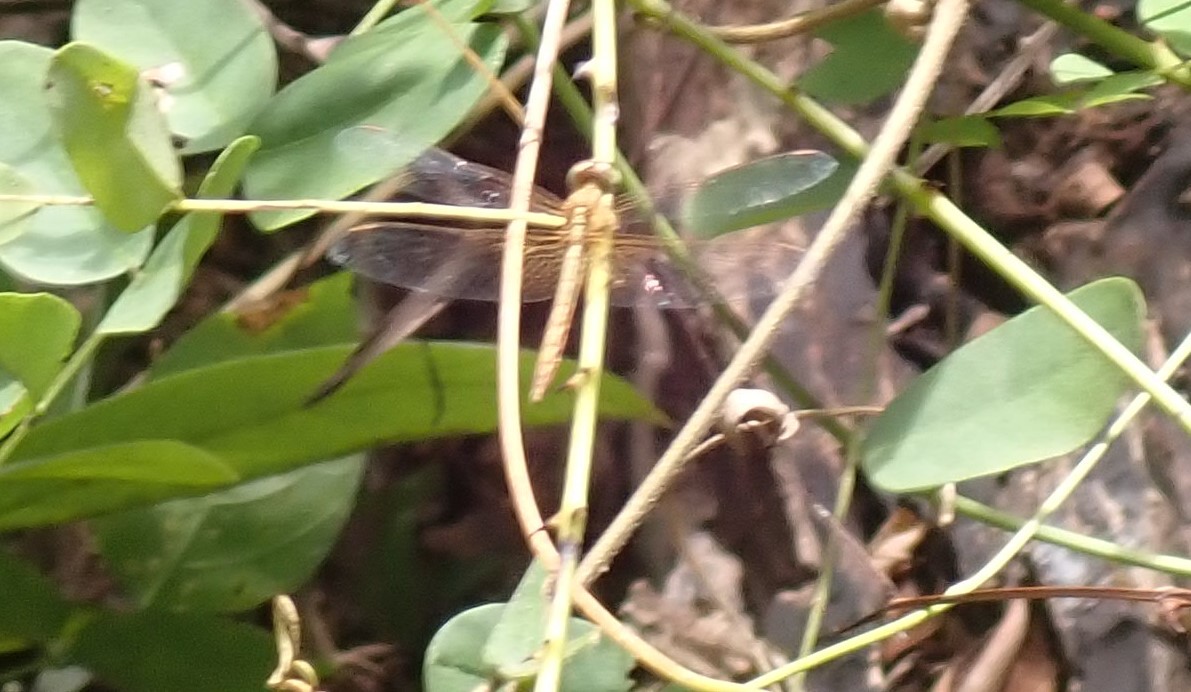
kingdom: Animalia
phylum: Arthropoda
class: Insecta
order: Odonata
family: Libellulidae
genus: Neurothemis
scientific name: Neurothemis intermedia
